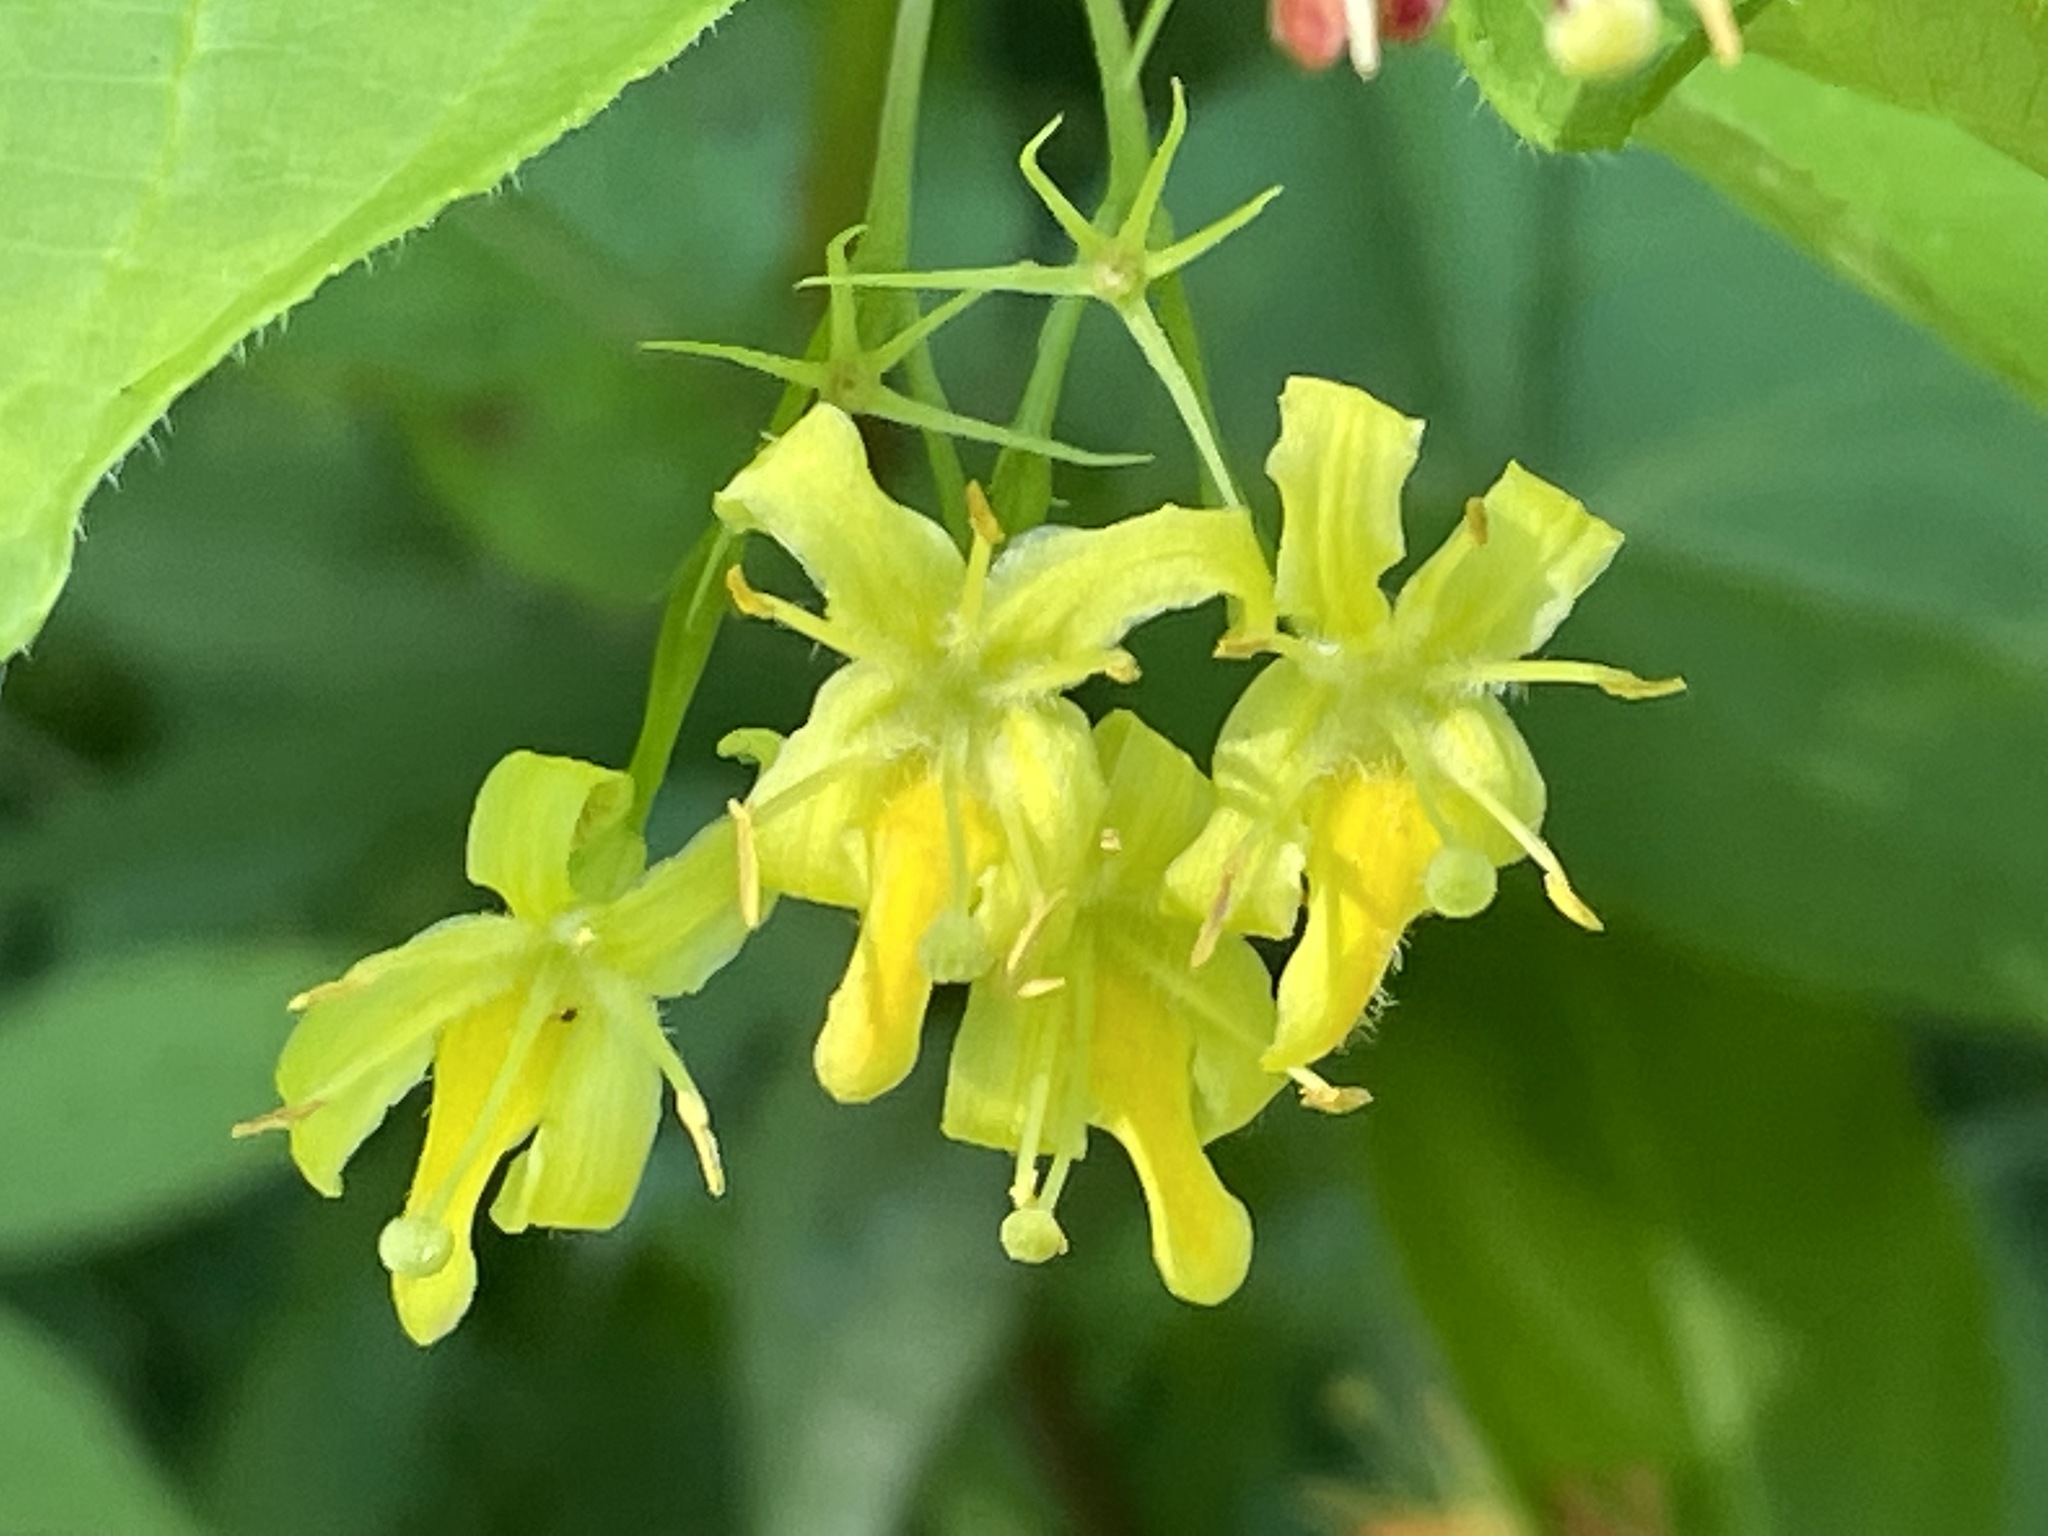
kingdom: Plantae
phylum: Tracheophyta
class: Magnoliopsida
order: Dipsacales
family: Caprifoliaceae
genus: Diervilla
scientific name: Diervilla lonicera
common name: Bush-honeysuckle
